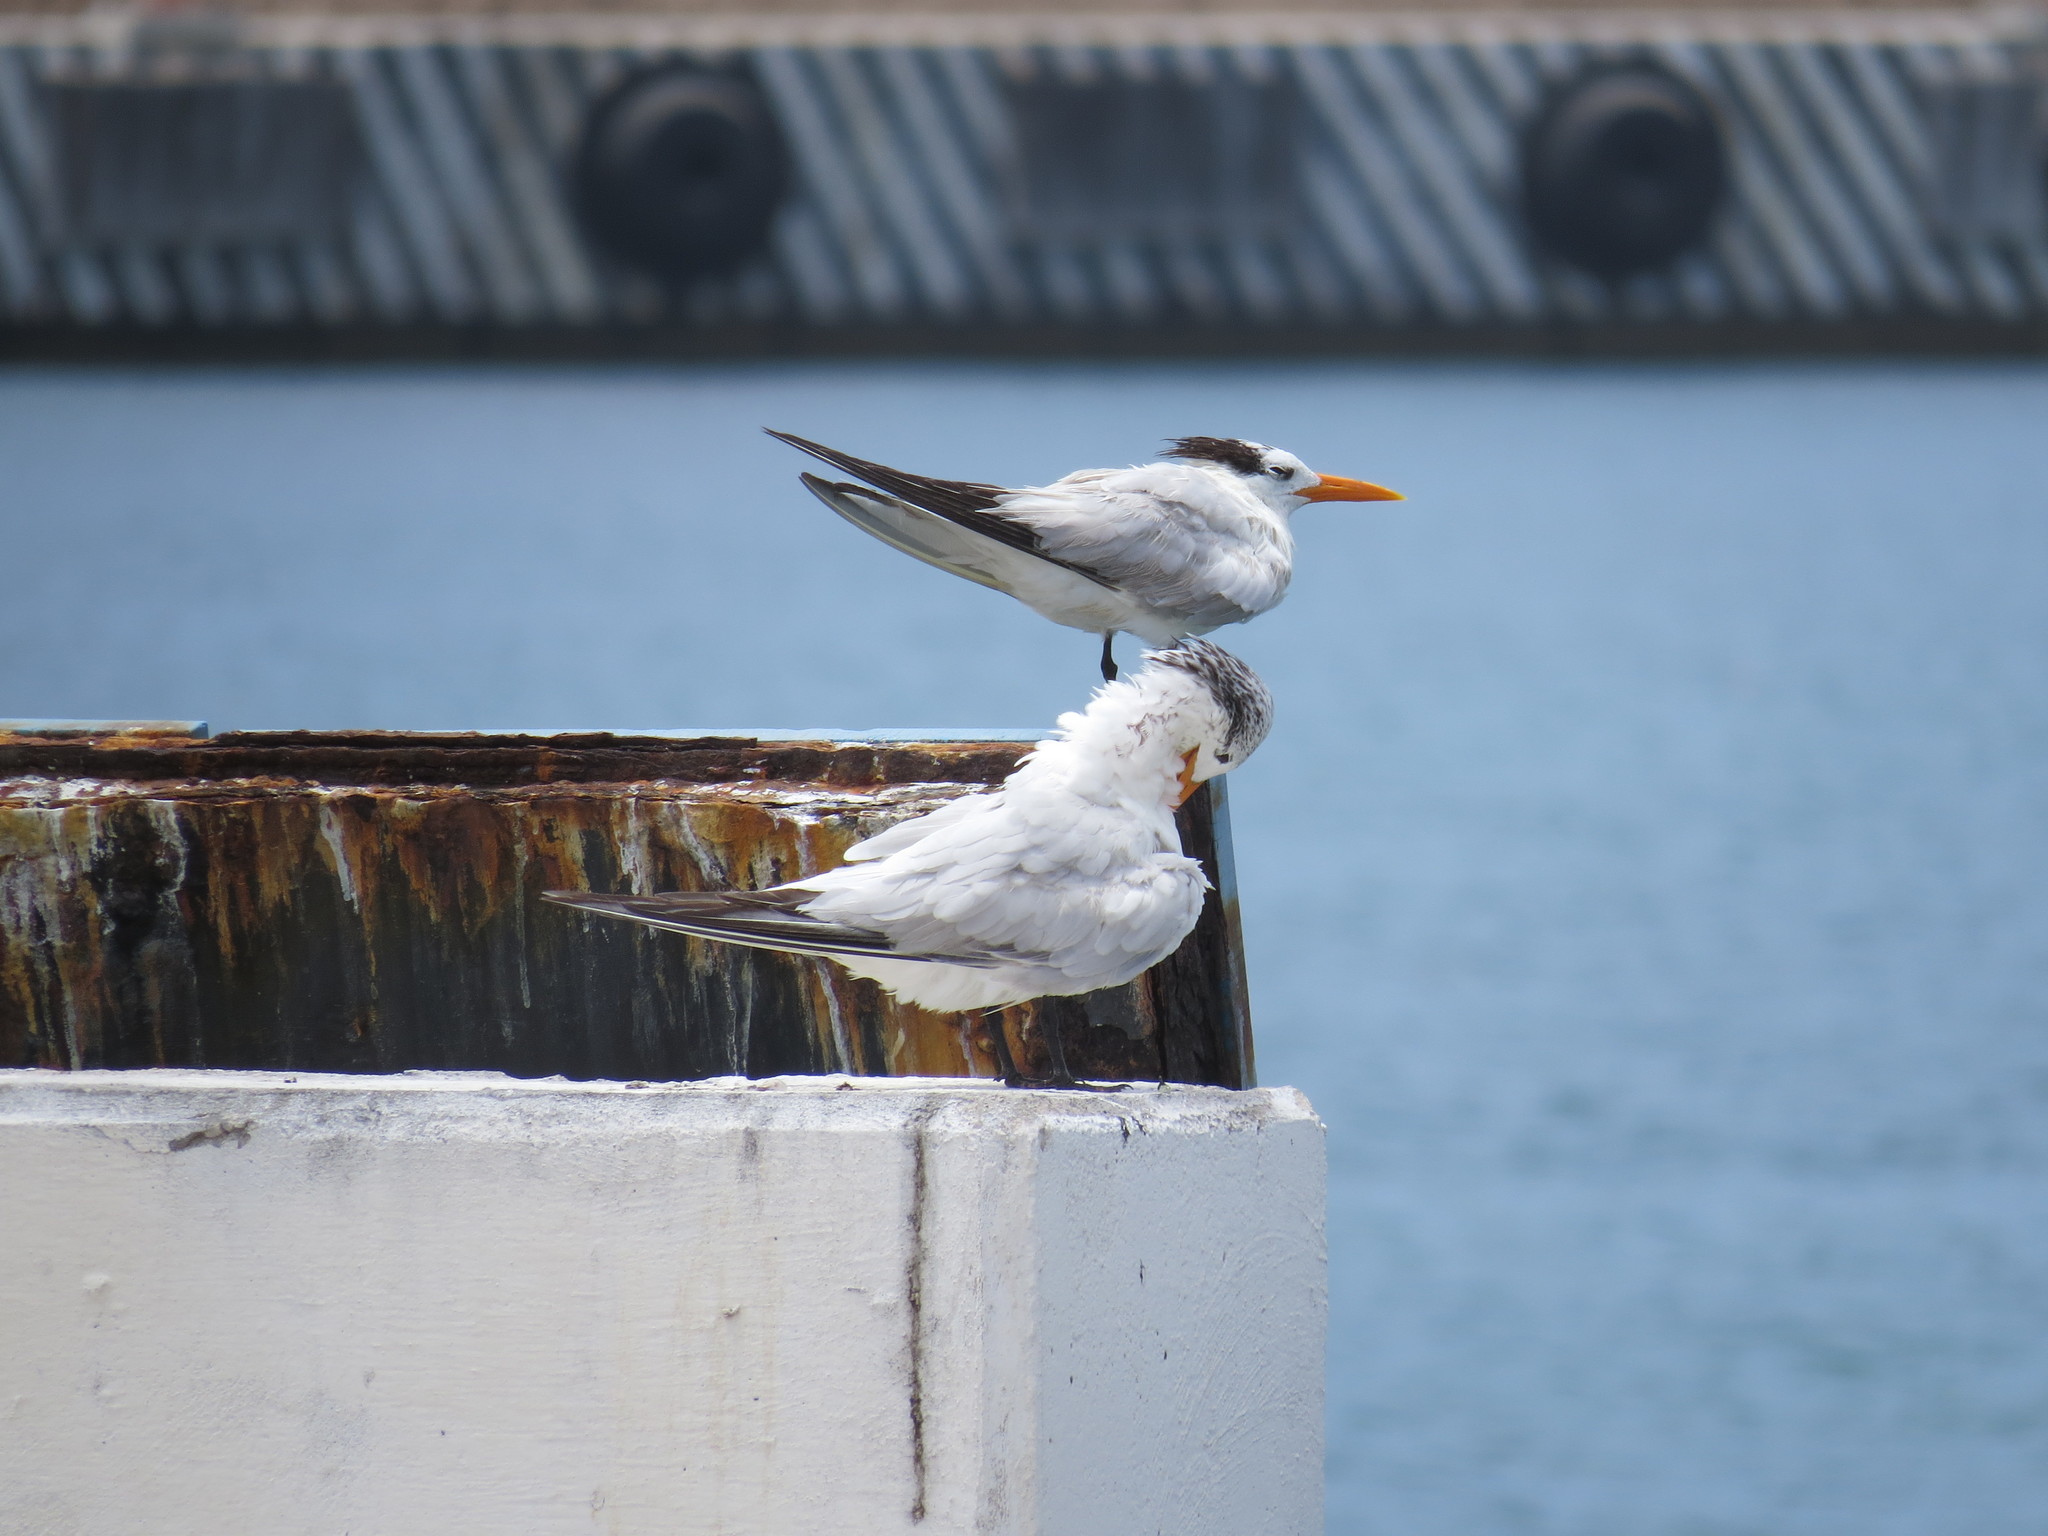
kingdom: Animalia
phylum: Chordata
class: Aves
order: Charadriiformes
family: Laridae
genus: Thalasseus
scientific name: Thalasseus maximus
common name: Royal tern
